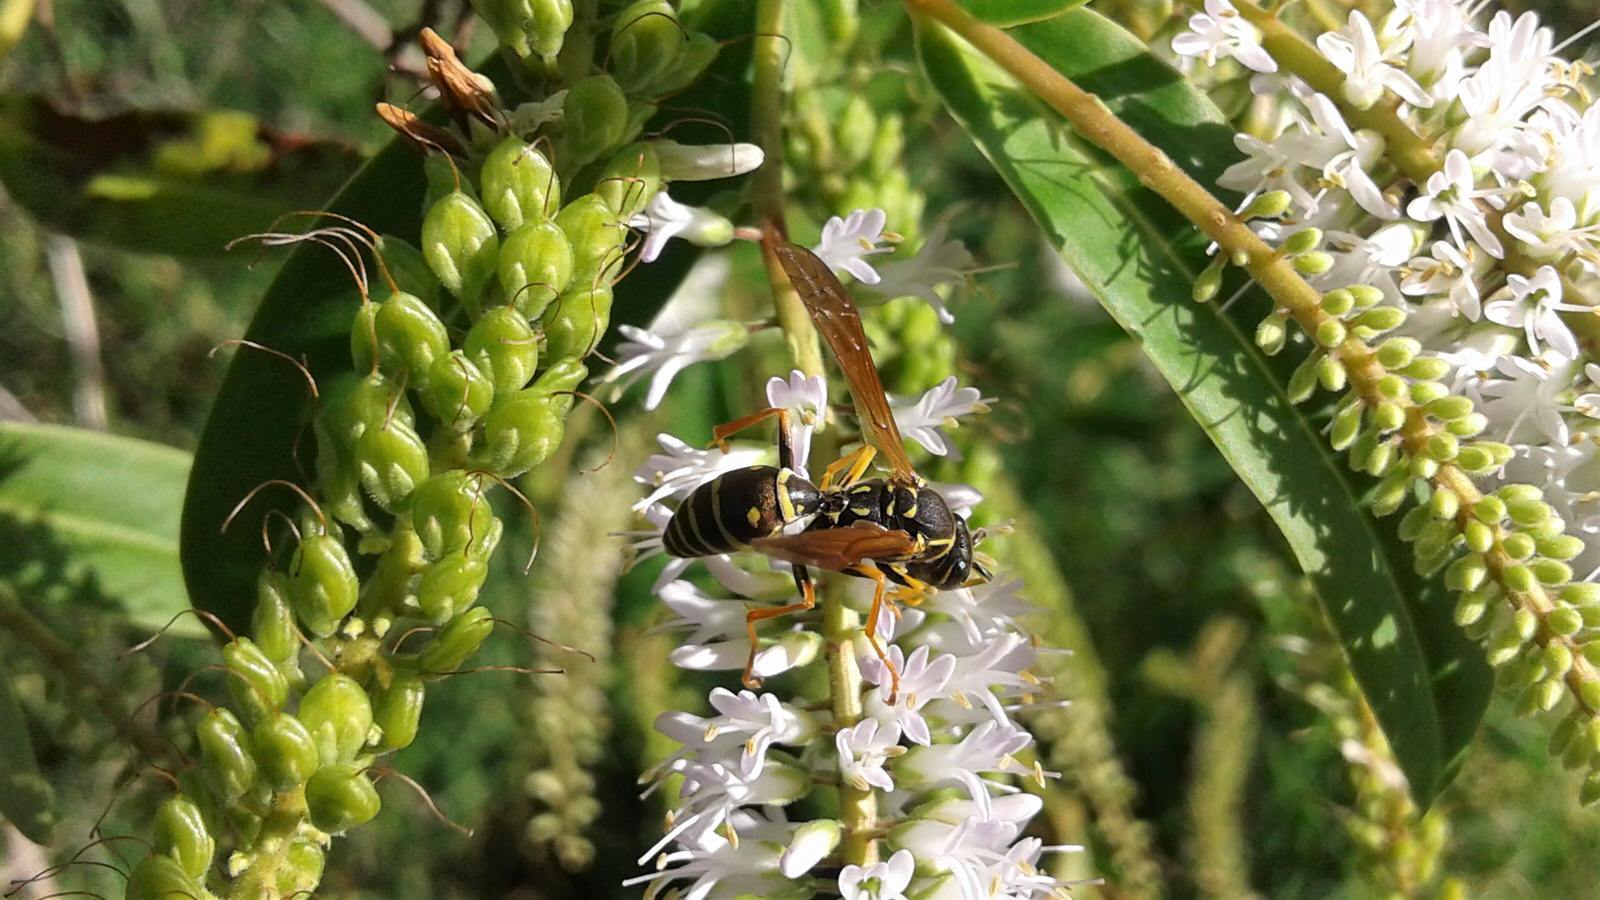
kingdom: Animalia
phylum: Arthropoda
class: Insecta
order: Hymenoptera
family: Eumenidae
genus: Polistes
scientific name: Polistes chinensis
